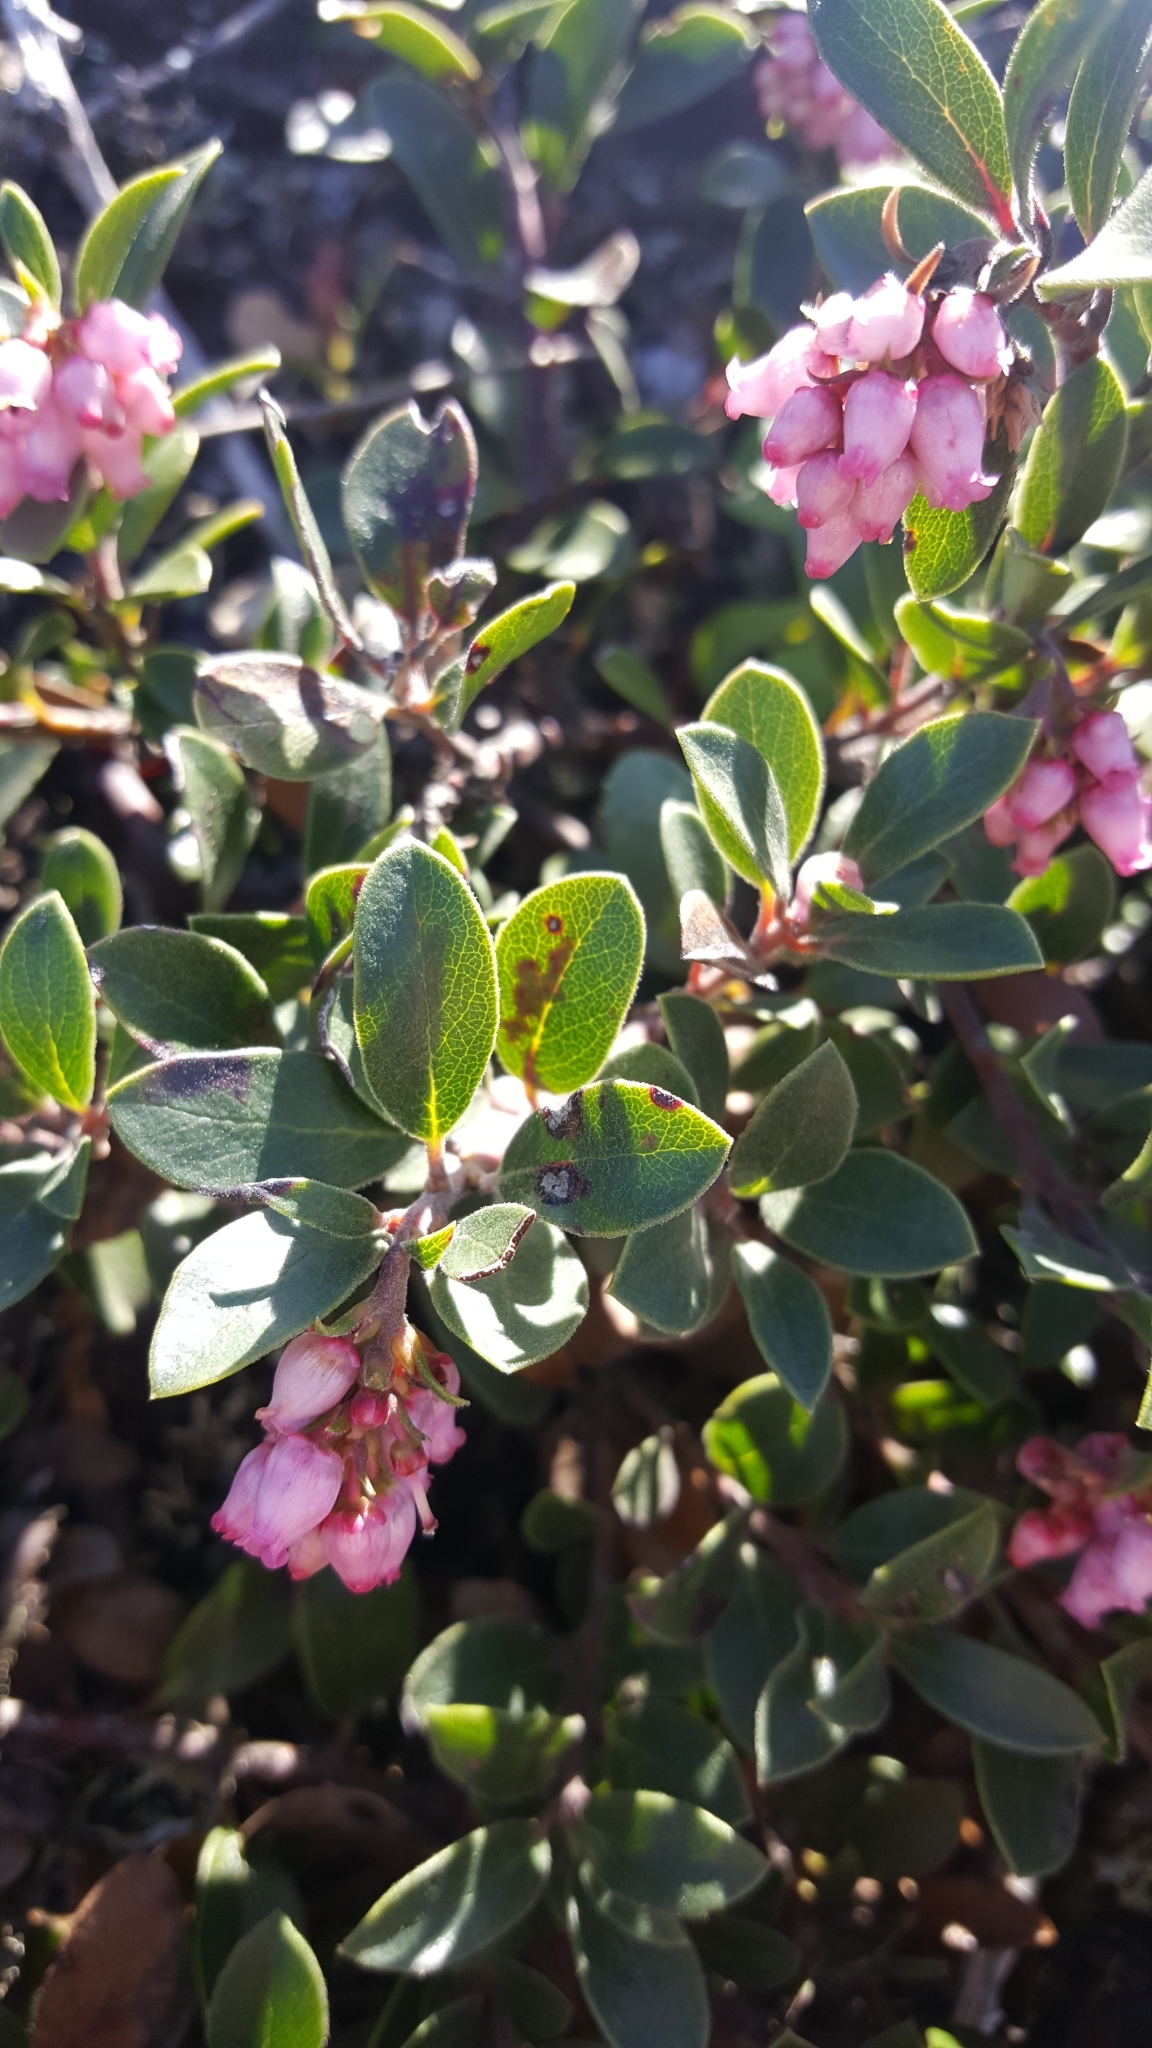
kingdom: Plantae
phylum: Tracheophyta
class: Magnoliopsida
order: Ericales
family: Ericaceae
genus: Arctostaphylos
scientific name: Arctostaphylos uva-ursi
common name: Bearberry
